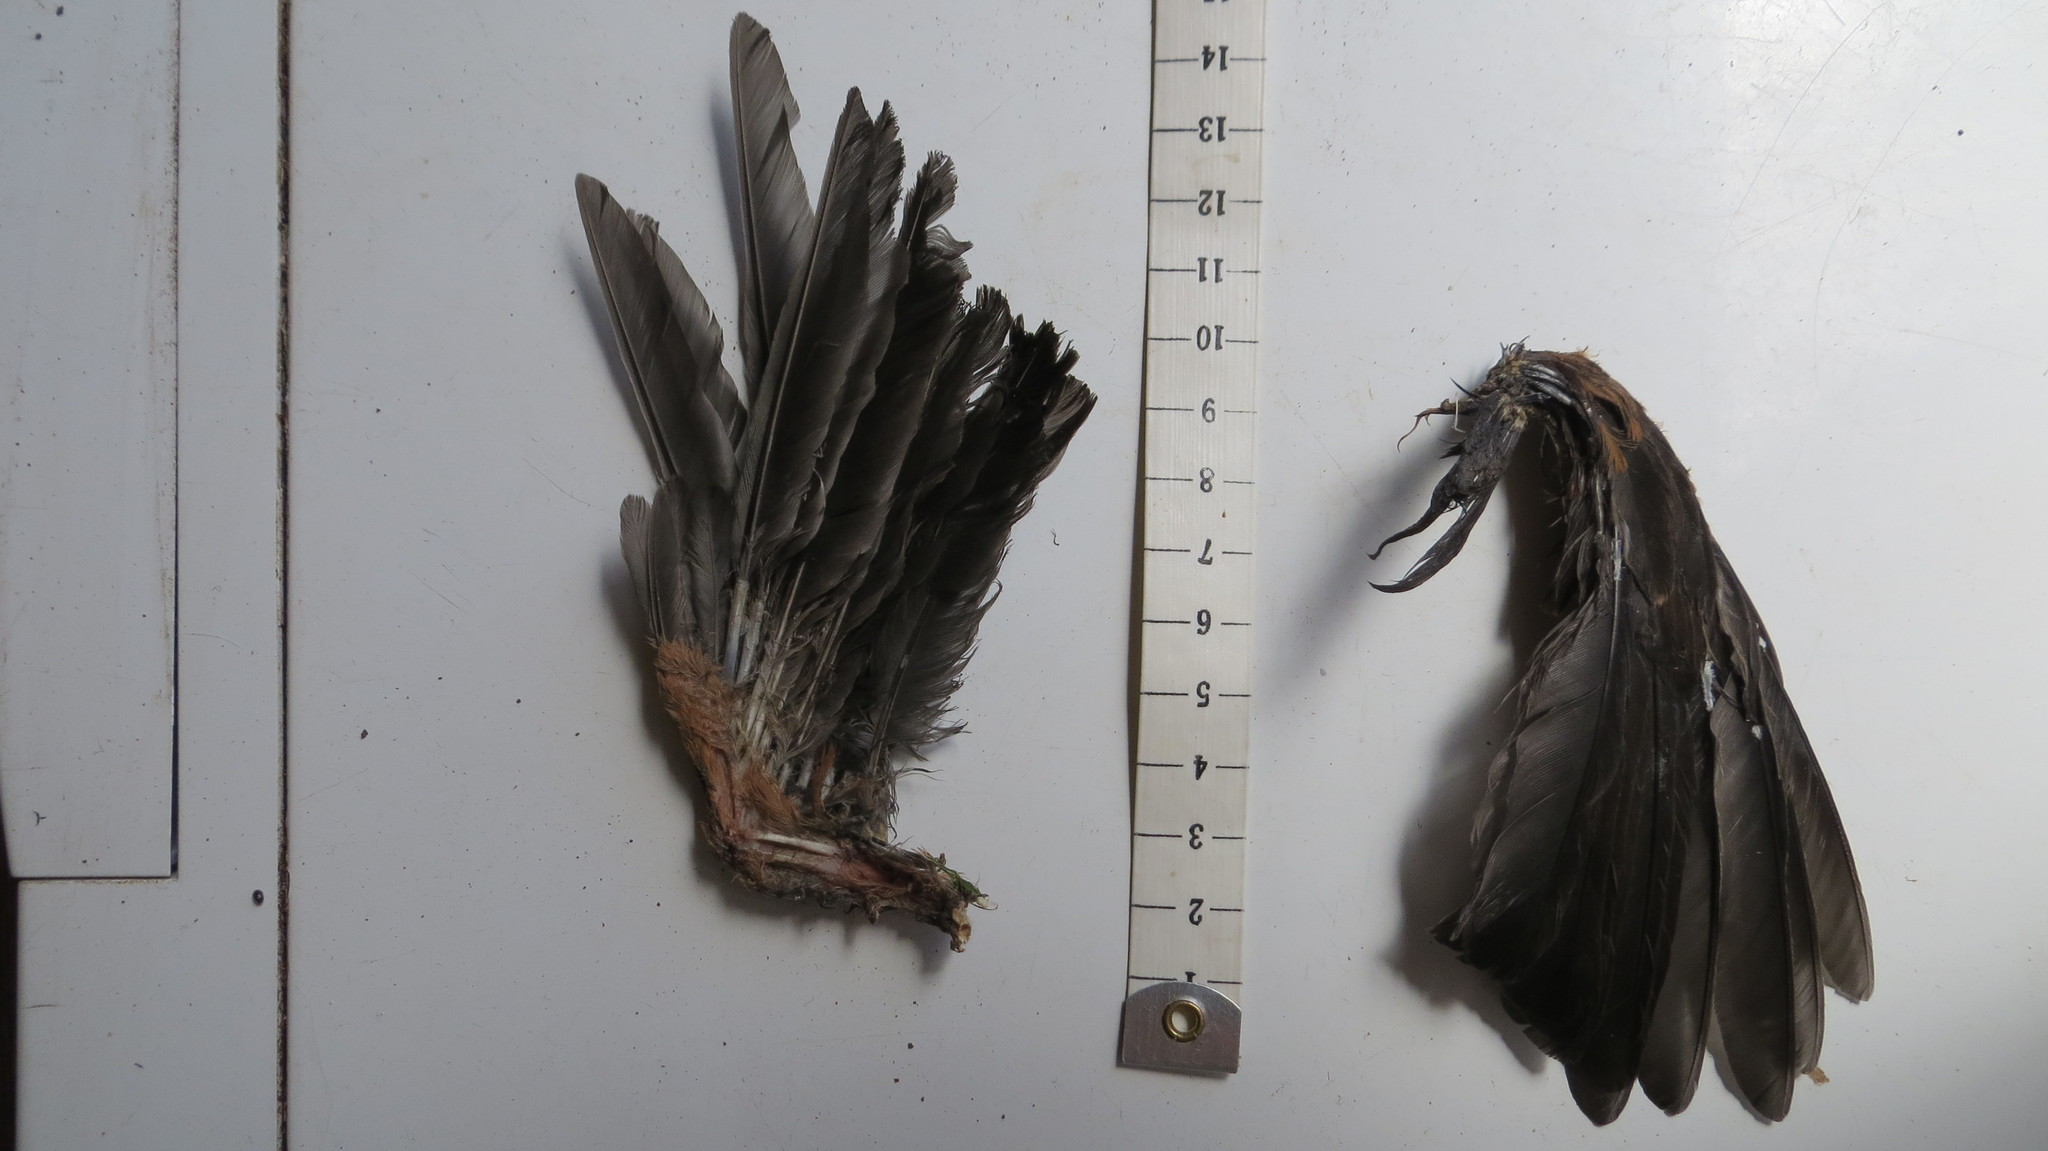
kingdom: Animalia
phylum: Chordata
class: Aves
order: Passeriformes
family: Turdidae
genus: Turdus
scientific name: Turdus merula
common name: Common blackbird
